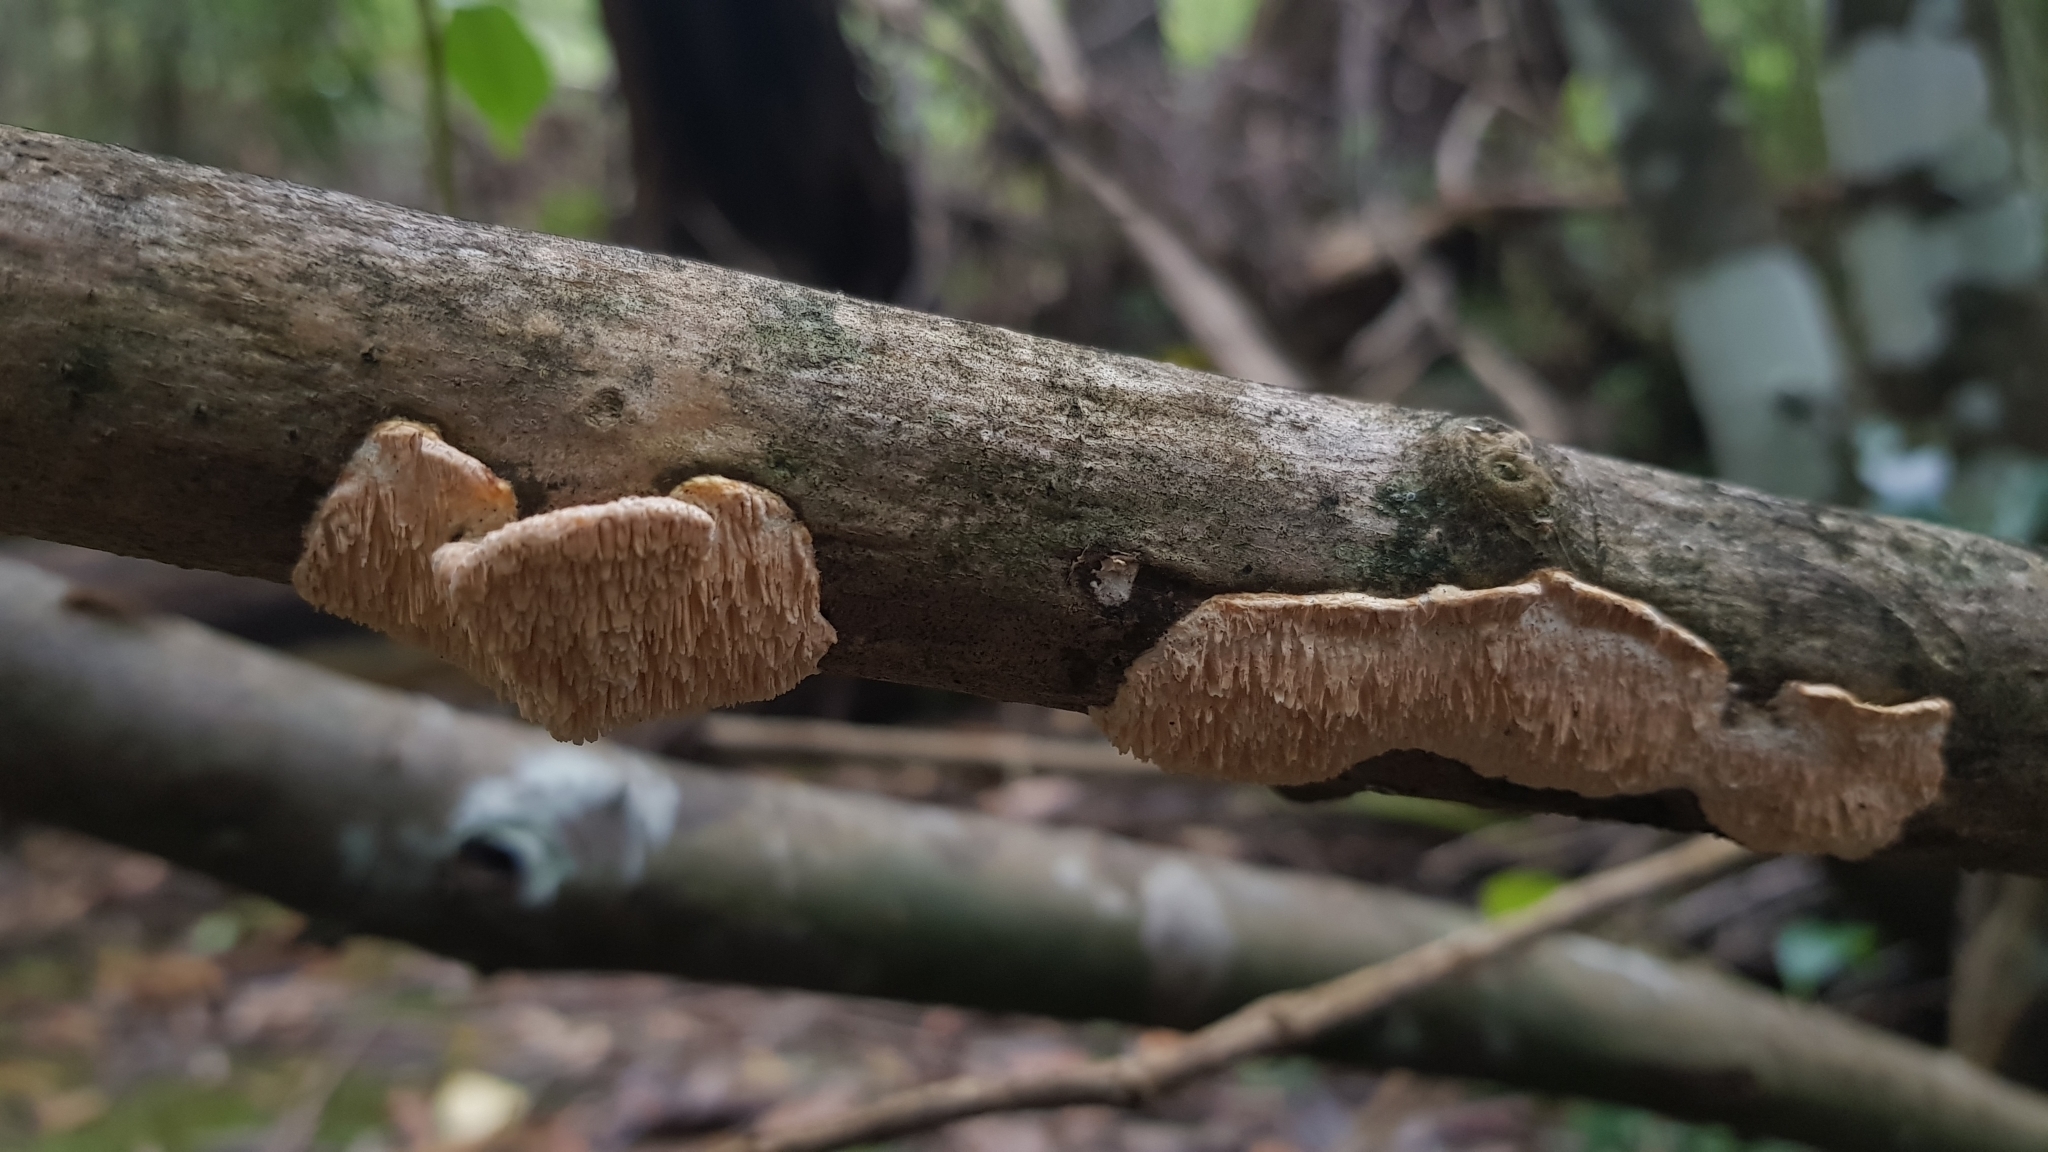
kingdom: Fungi
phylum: Basidiomycota
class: Agaricomycetes
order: Polyporales
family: Cerrenaceae
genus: Cerrena
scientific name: Cerrena zonata
